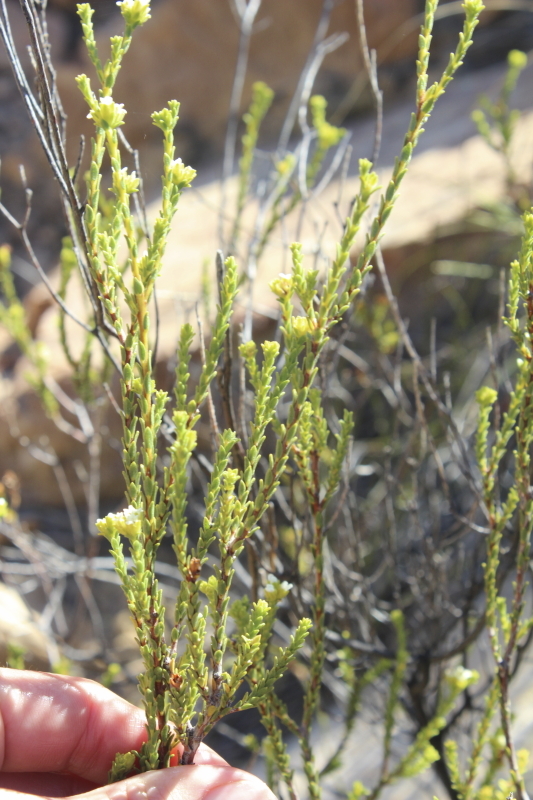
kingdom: Plantae
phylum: Tracheophyta
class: Magnoliopsida
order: Sapindales
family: Rutaceae
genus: Euchaetis
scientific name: Euchaetis vallis-simiae
